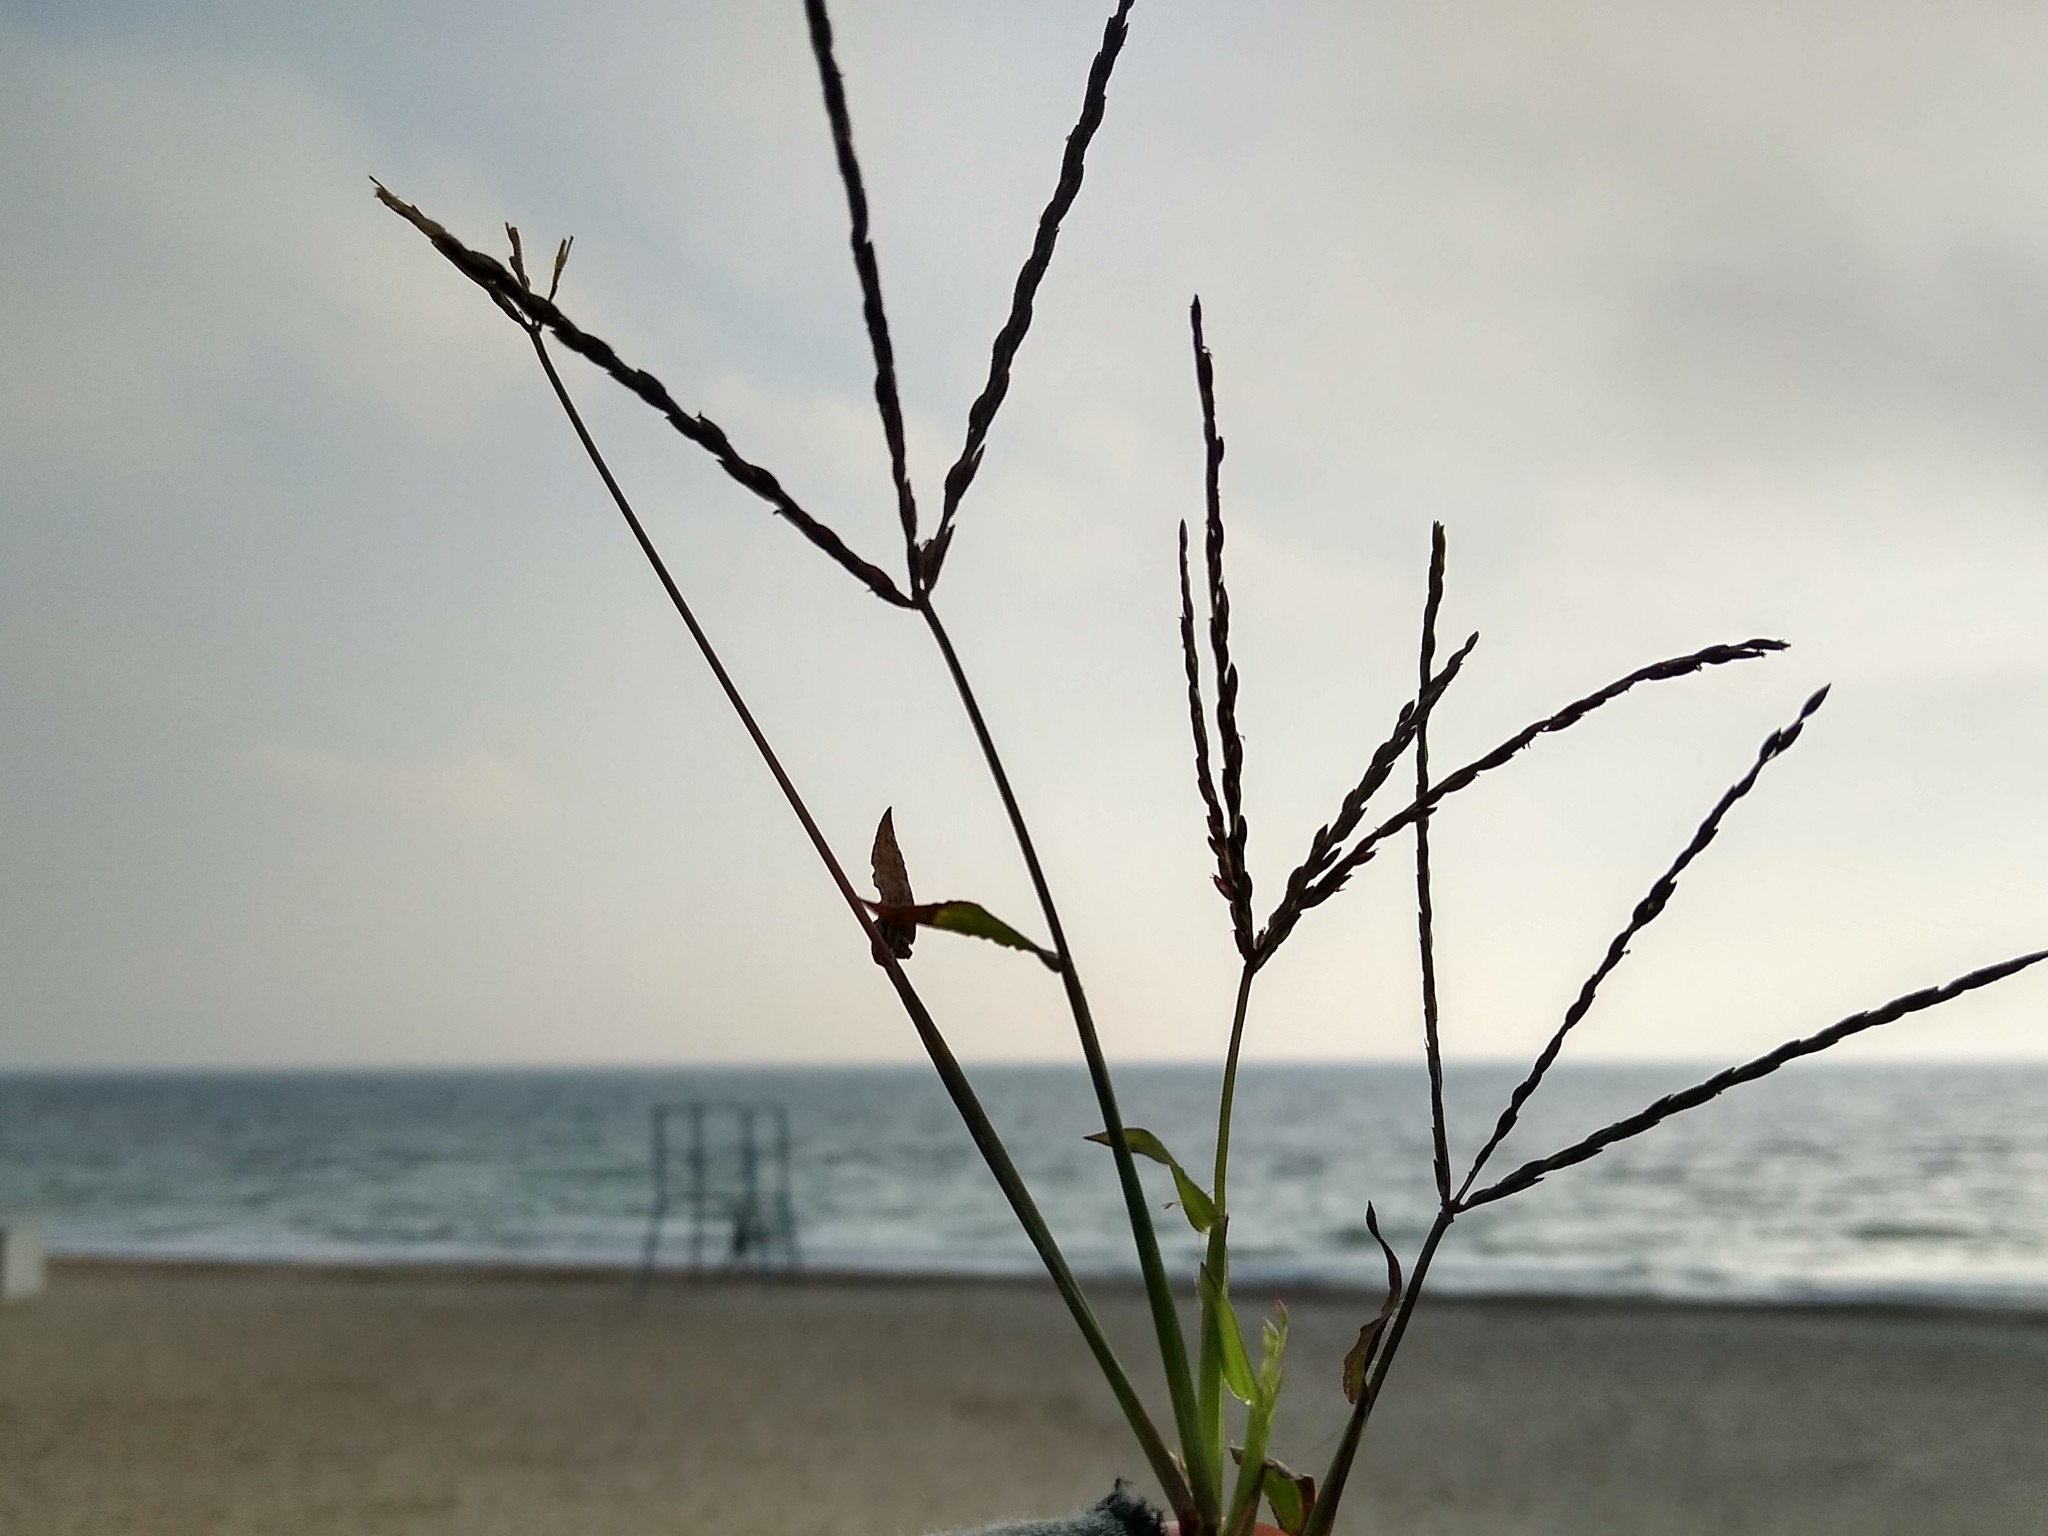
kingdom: Plantae
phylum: Tracheophyta
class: Liliopsida
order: Poales
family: Poaceae
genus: Digitaria
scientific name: Digitaria sanguinalis
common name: Hairy crabgrass
